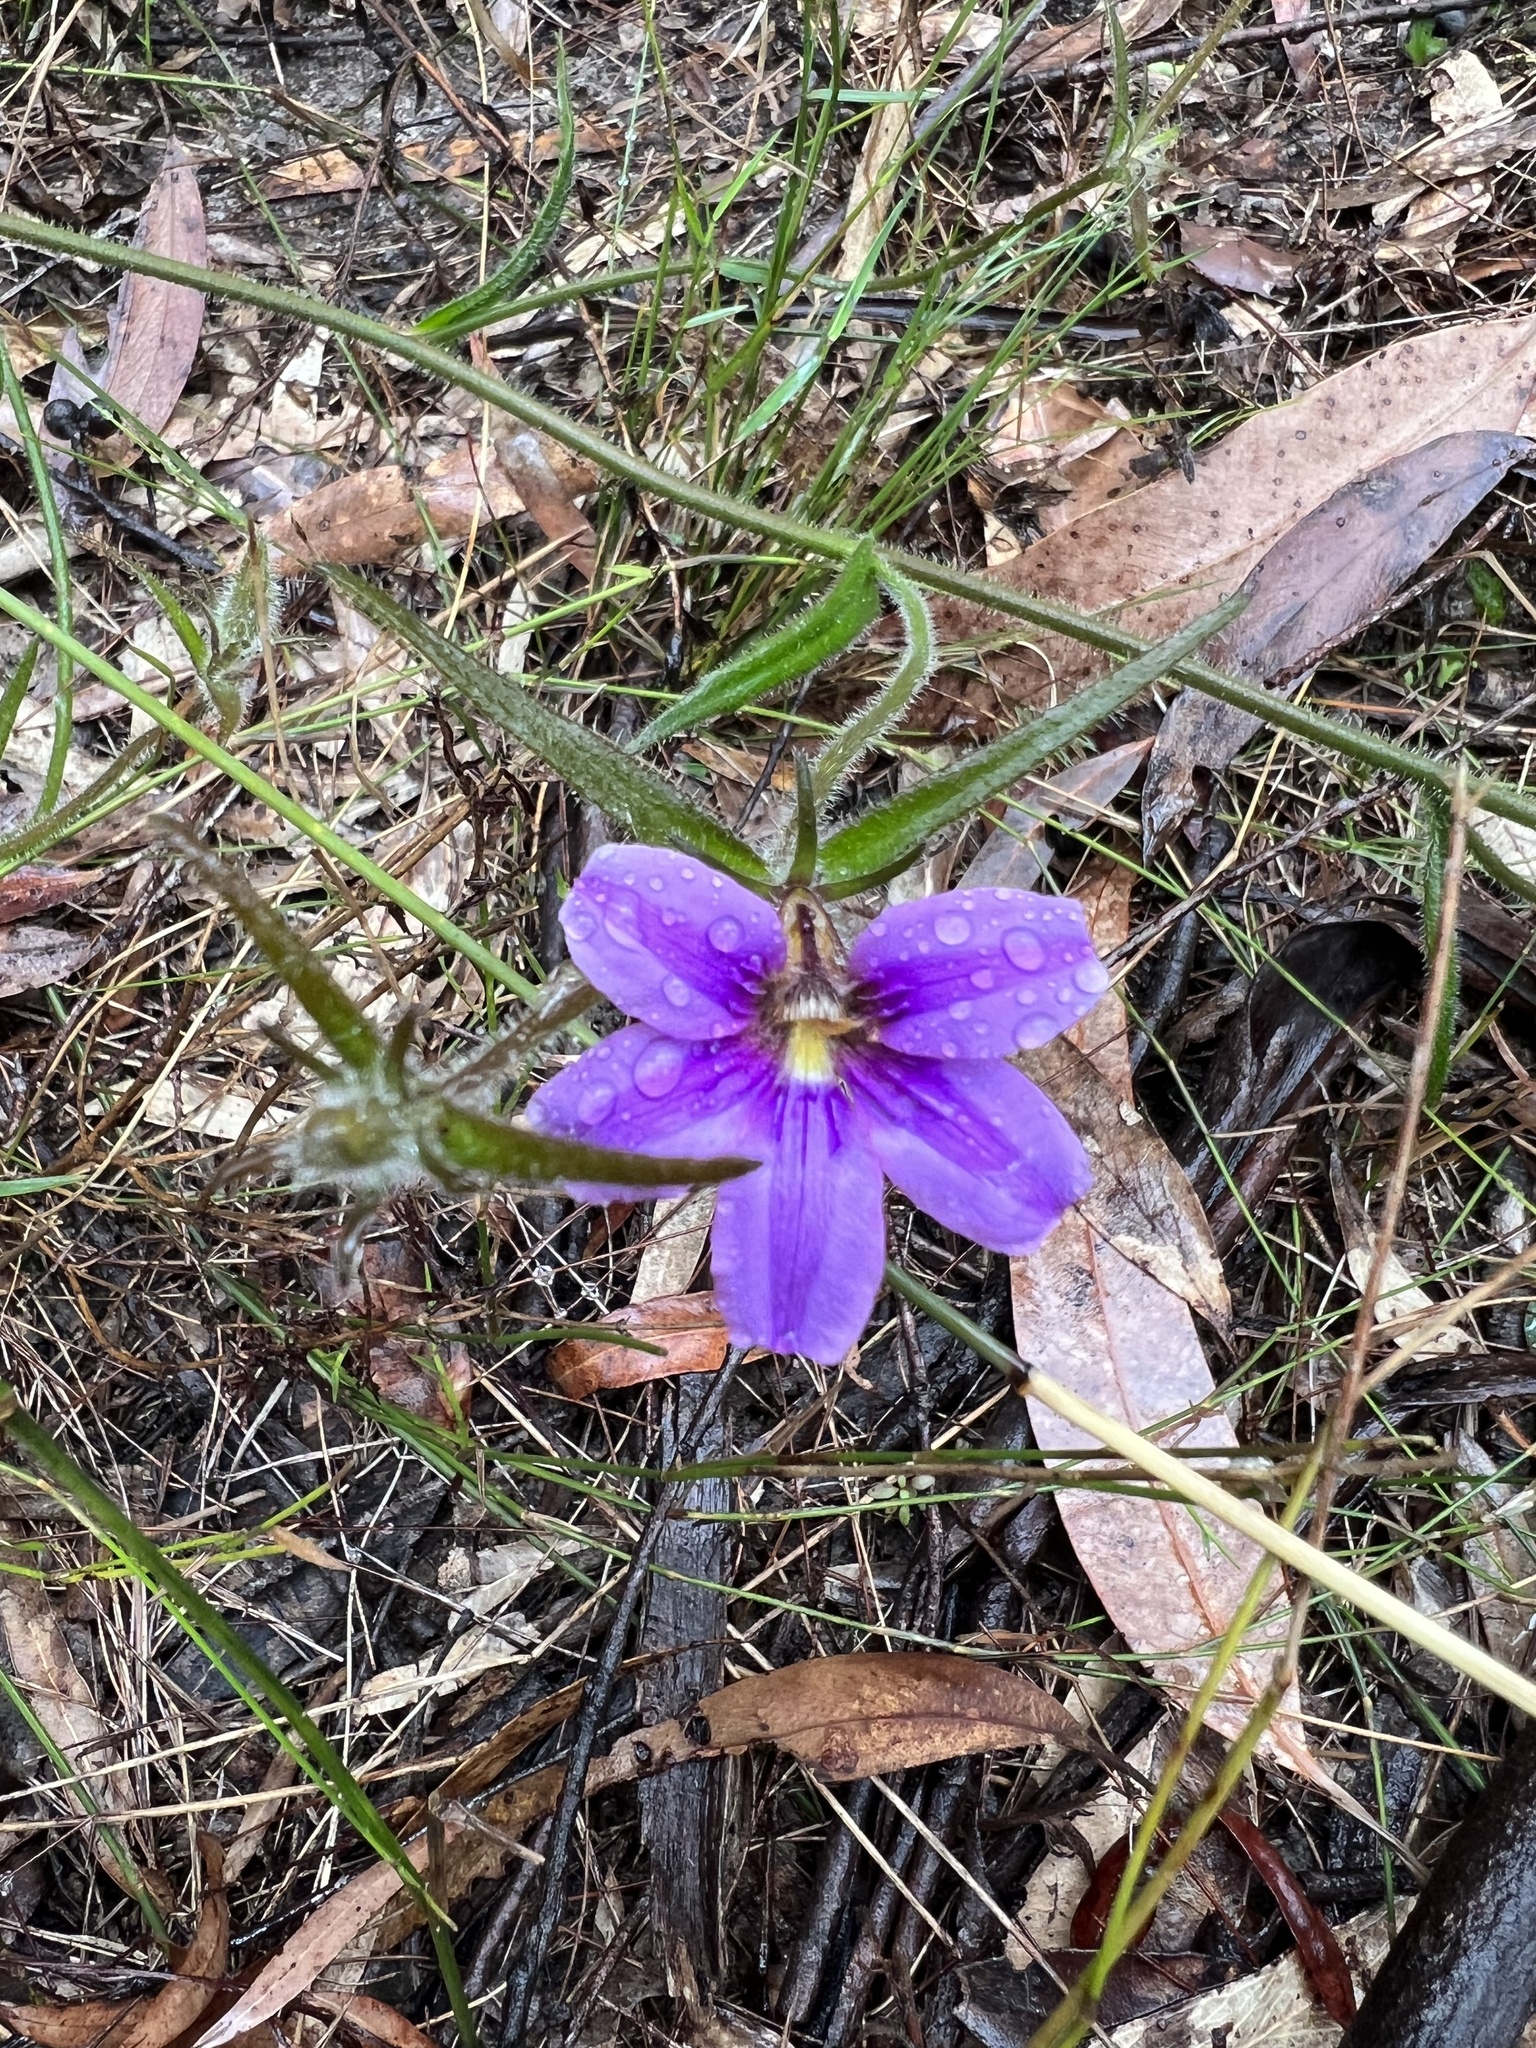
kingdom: Plantae
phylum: Tracheophyta
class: Magnoliopsida
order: Asterales
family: Goodeniaceae
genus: Scaevola
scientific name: Scaevola ramosissima
